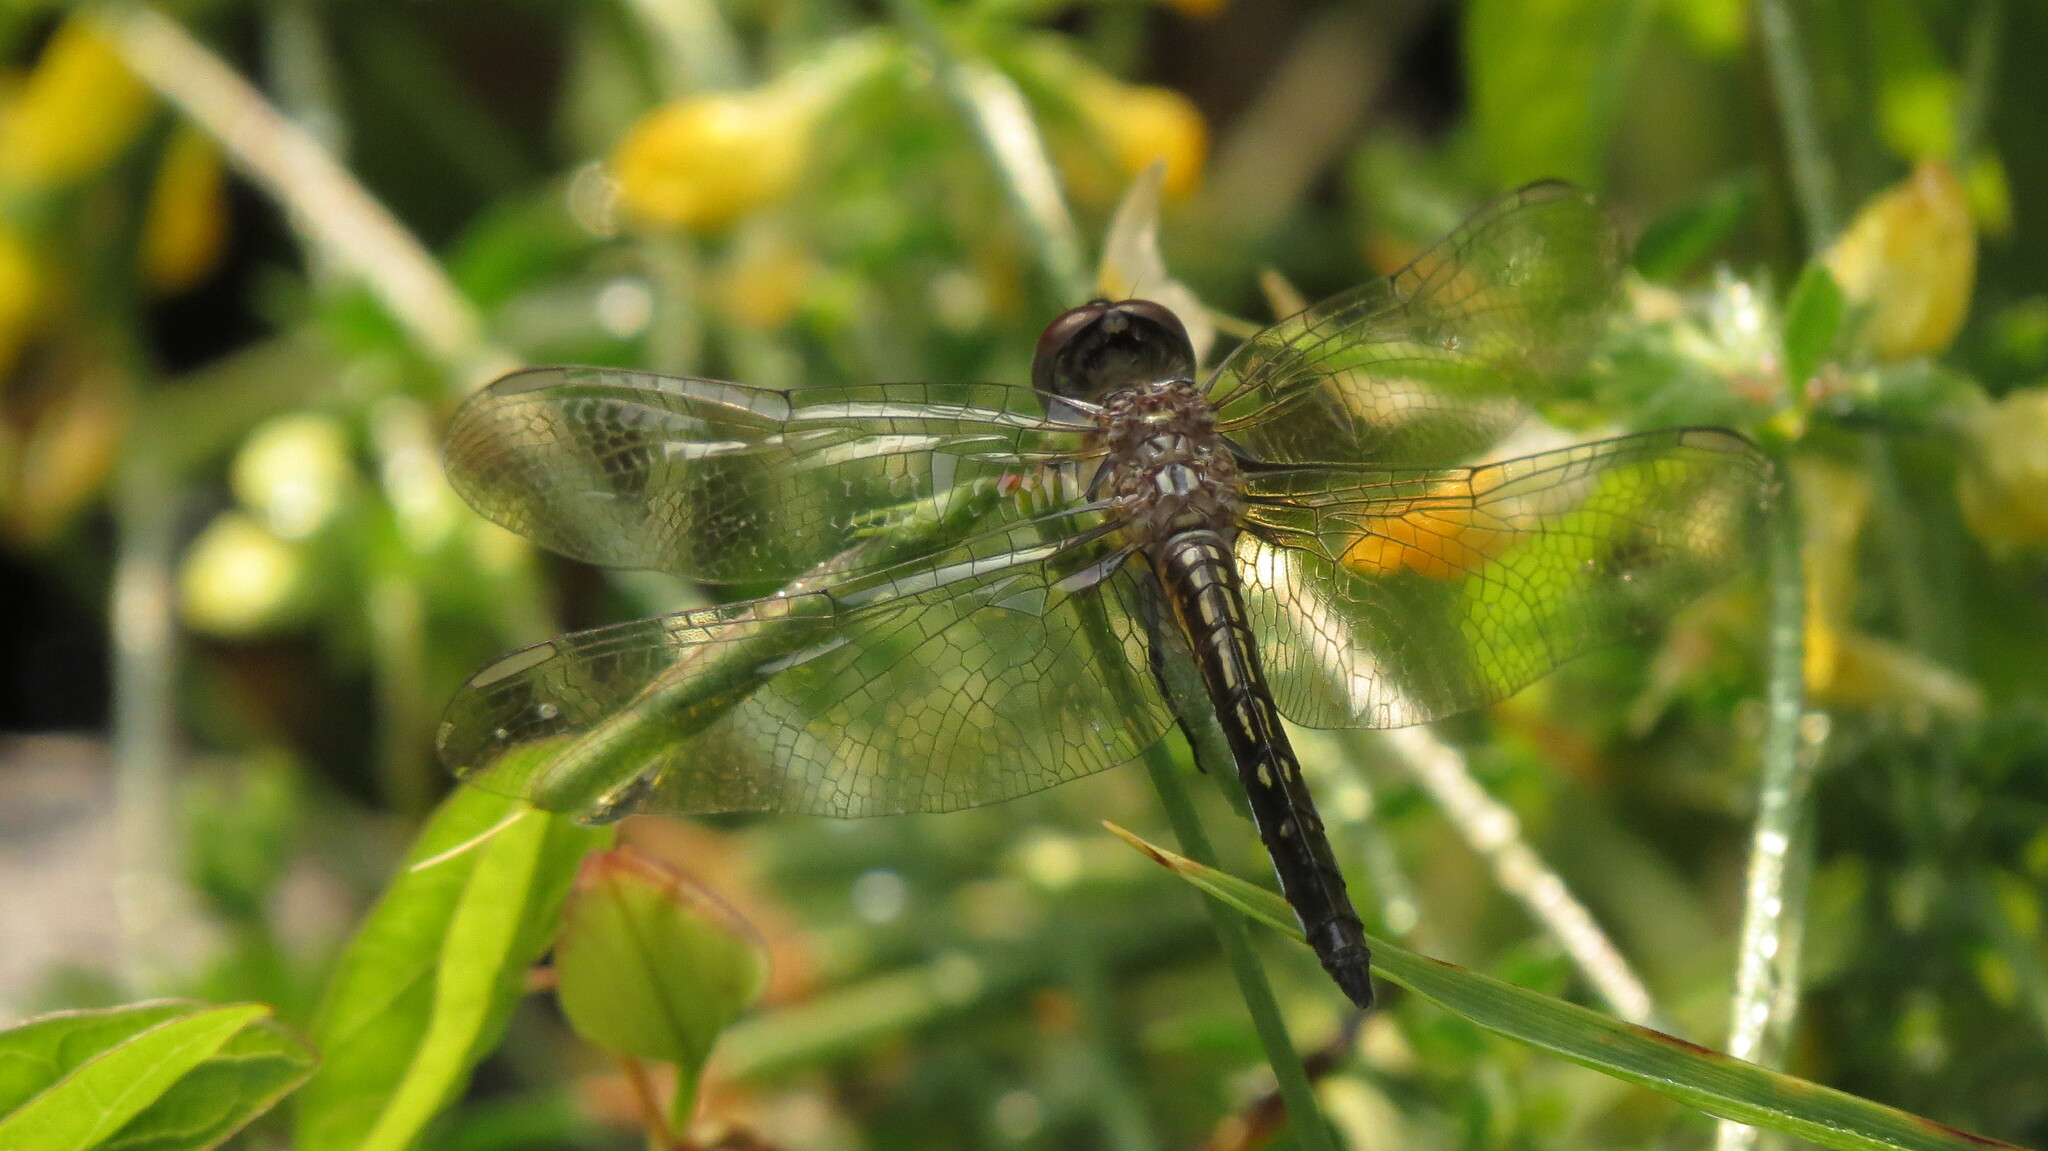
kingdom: Animalia
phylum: Arthropoda
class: Insecta
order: Odonata
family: Libellulidae
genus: Pachydiplax
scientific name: Pachydiplax longipennis
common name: Blue dasher
